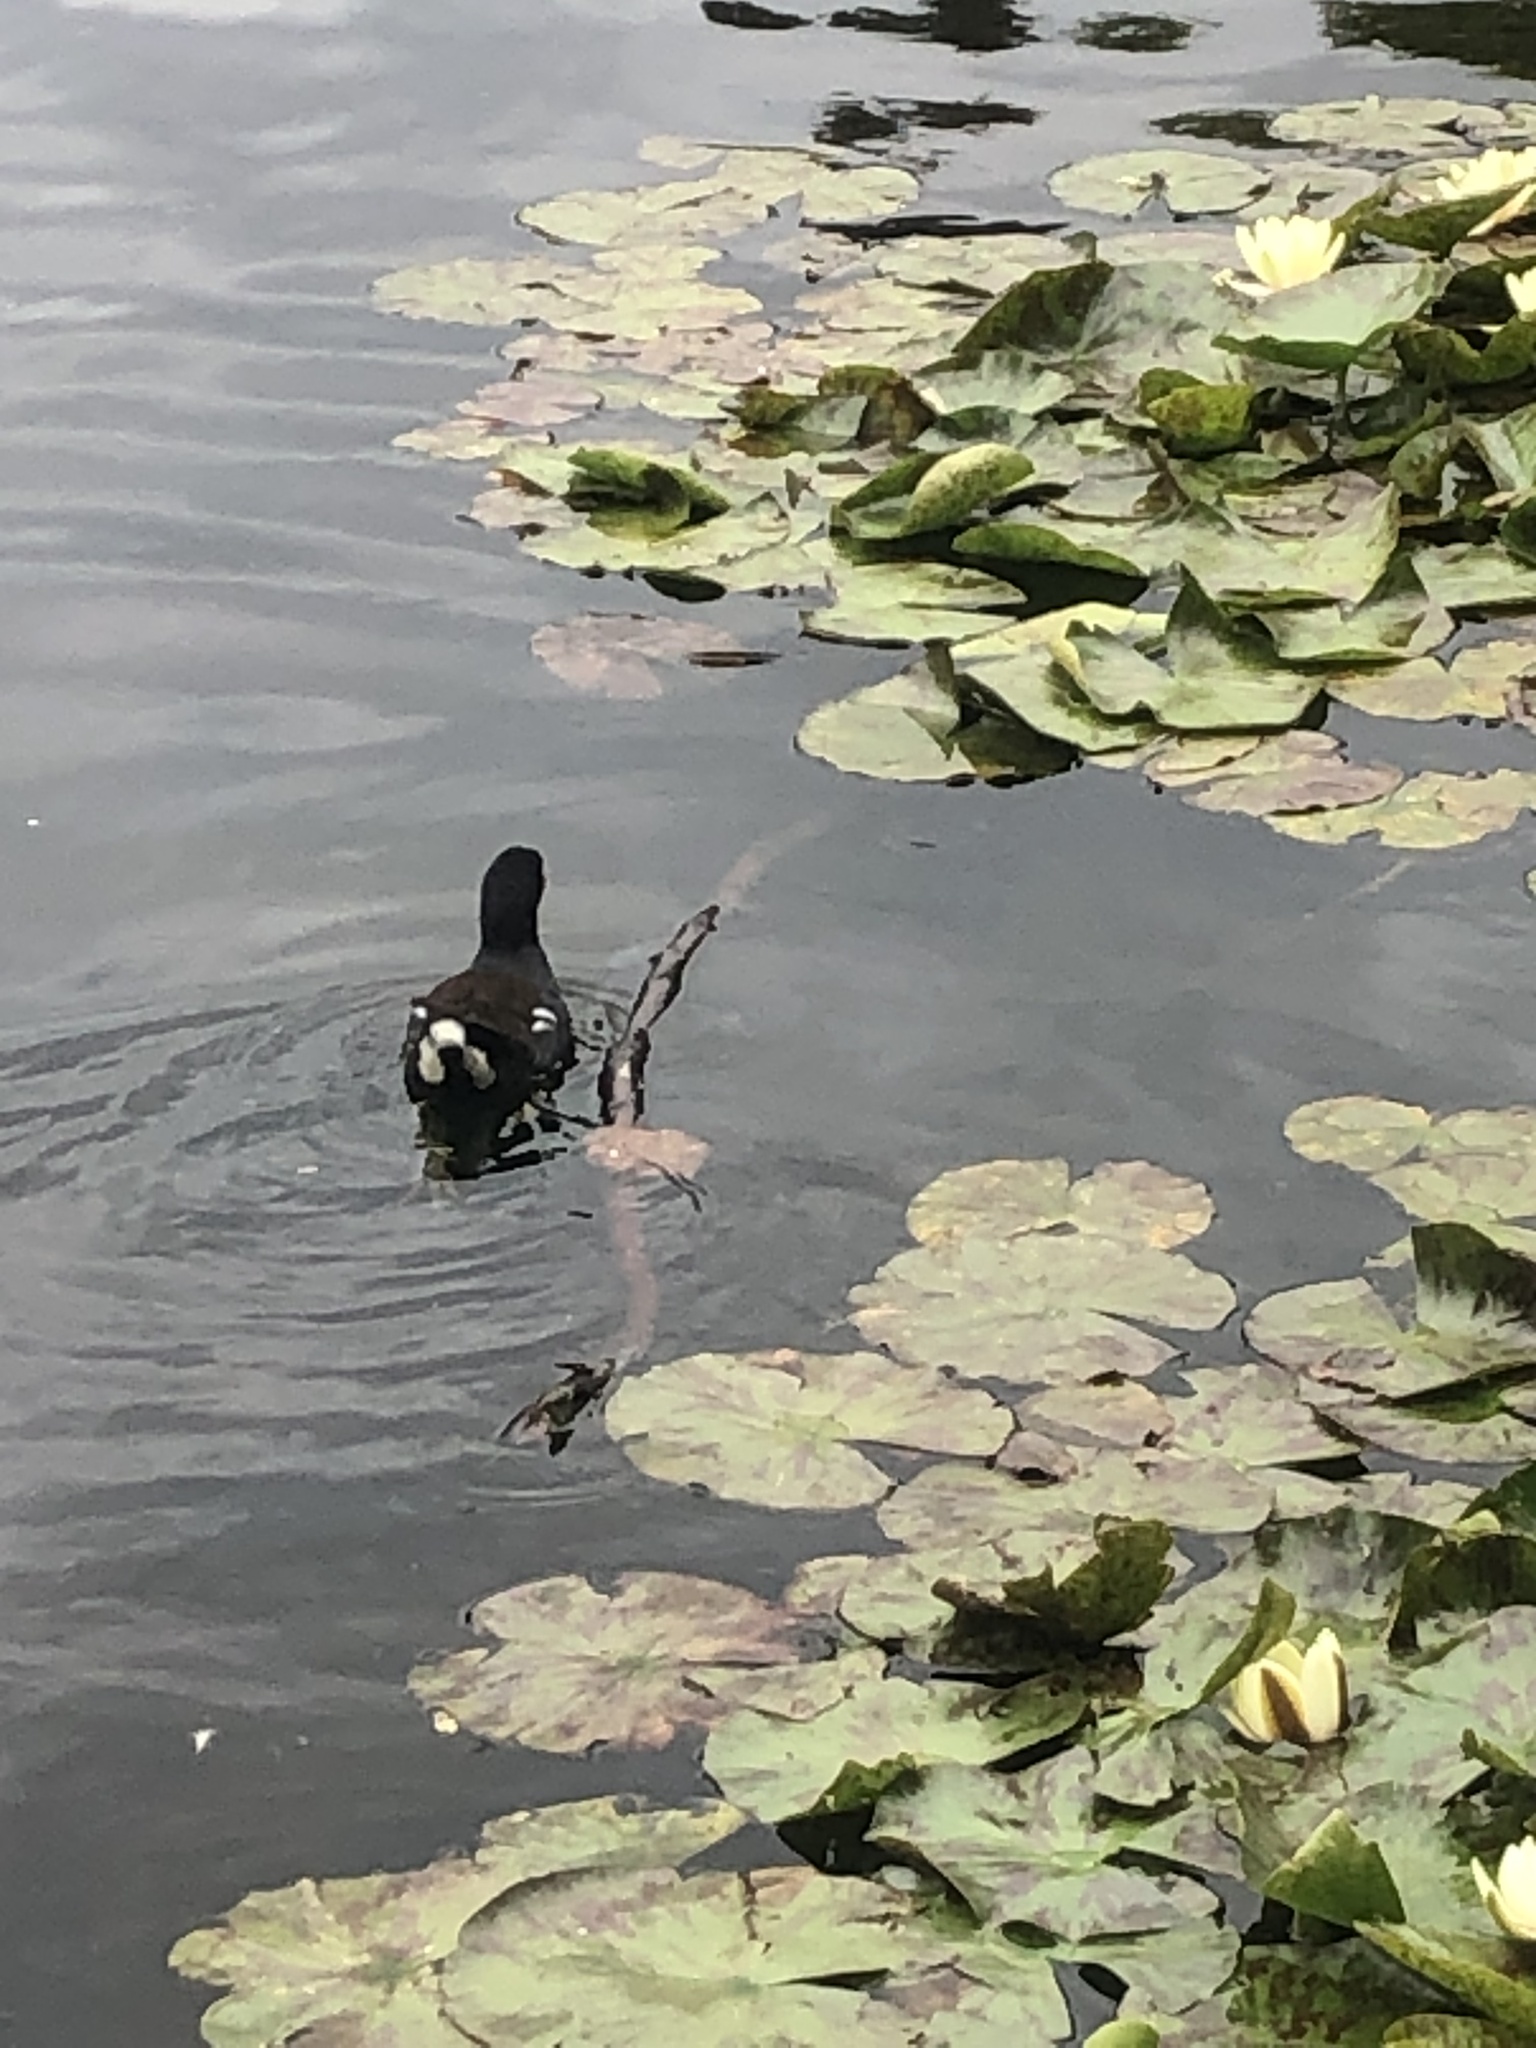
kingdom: Animalia
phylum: Chordata
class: Aves
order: Gruiformes
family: Rallidae
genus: Gallinula
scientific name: Gallinula chloropus
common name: Common moorhen
